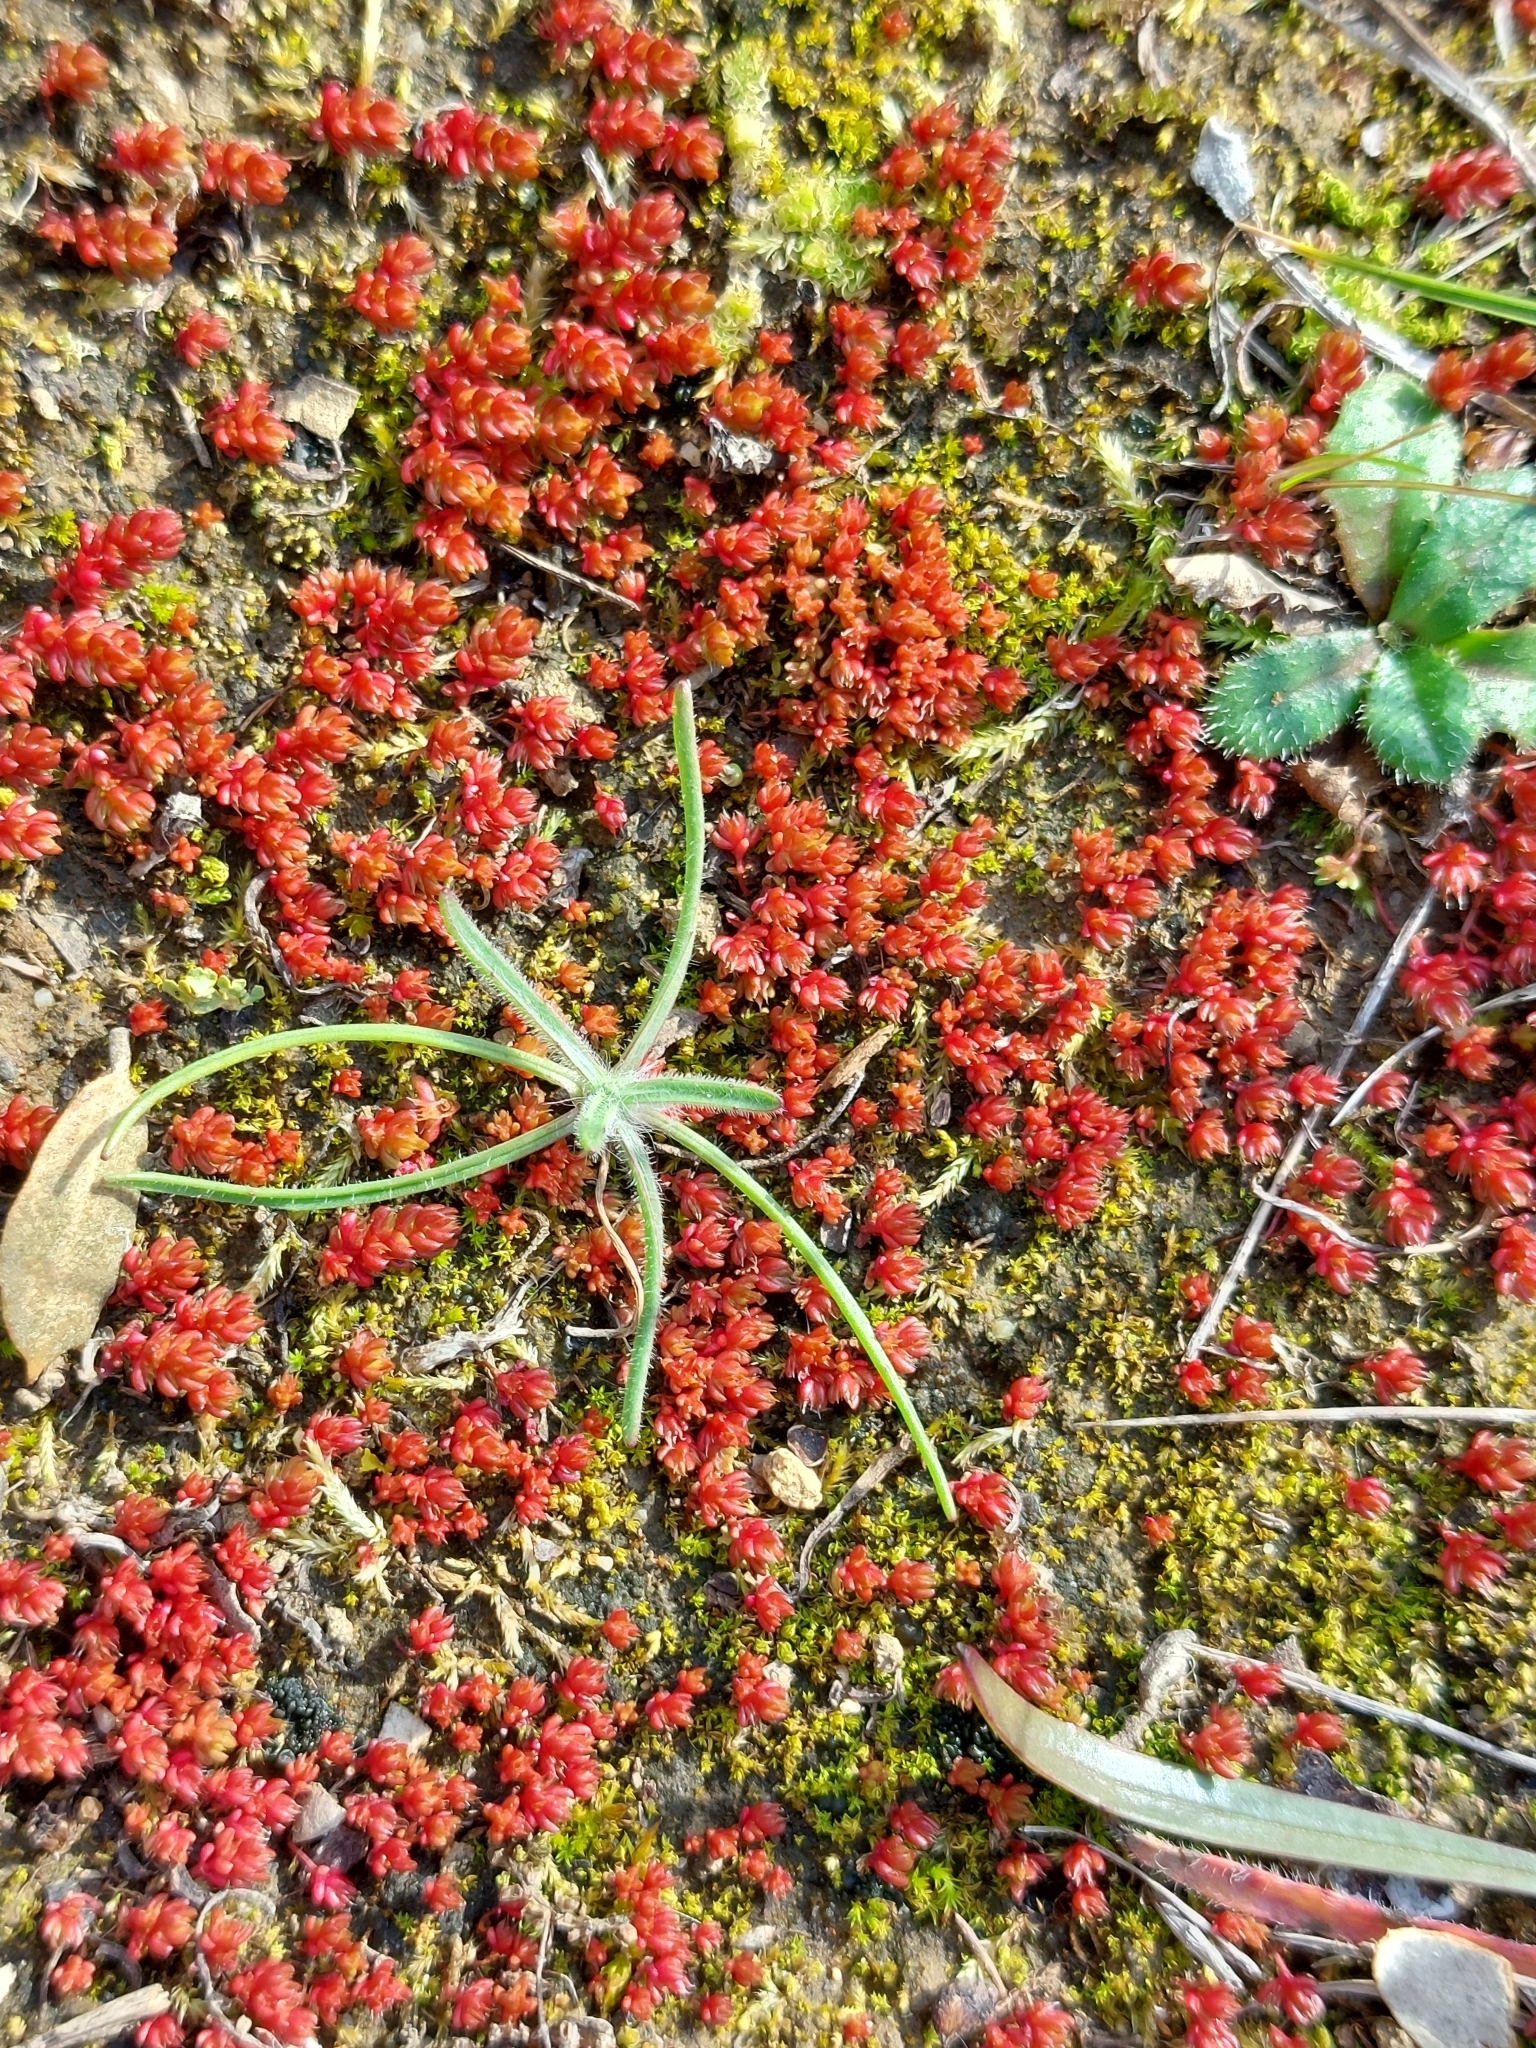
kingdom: Plantae
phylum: Tracheophyta
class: Magnoliopsida
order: Saxifragales
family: Crassulaceae
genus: Crassula
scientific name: Crassula tillaea
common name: Mossy stonecrop
